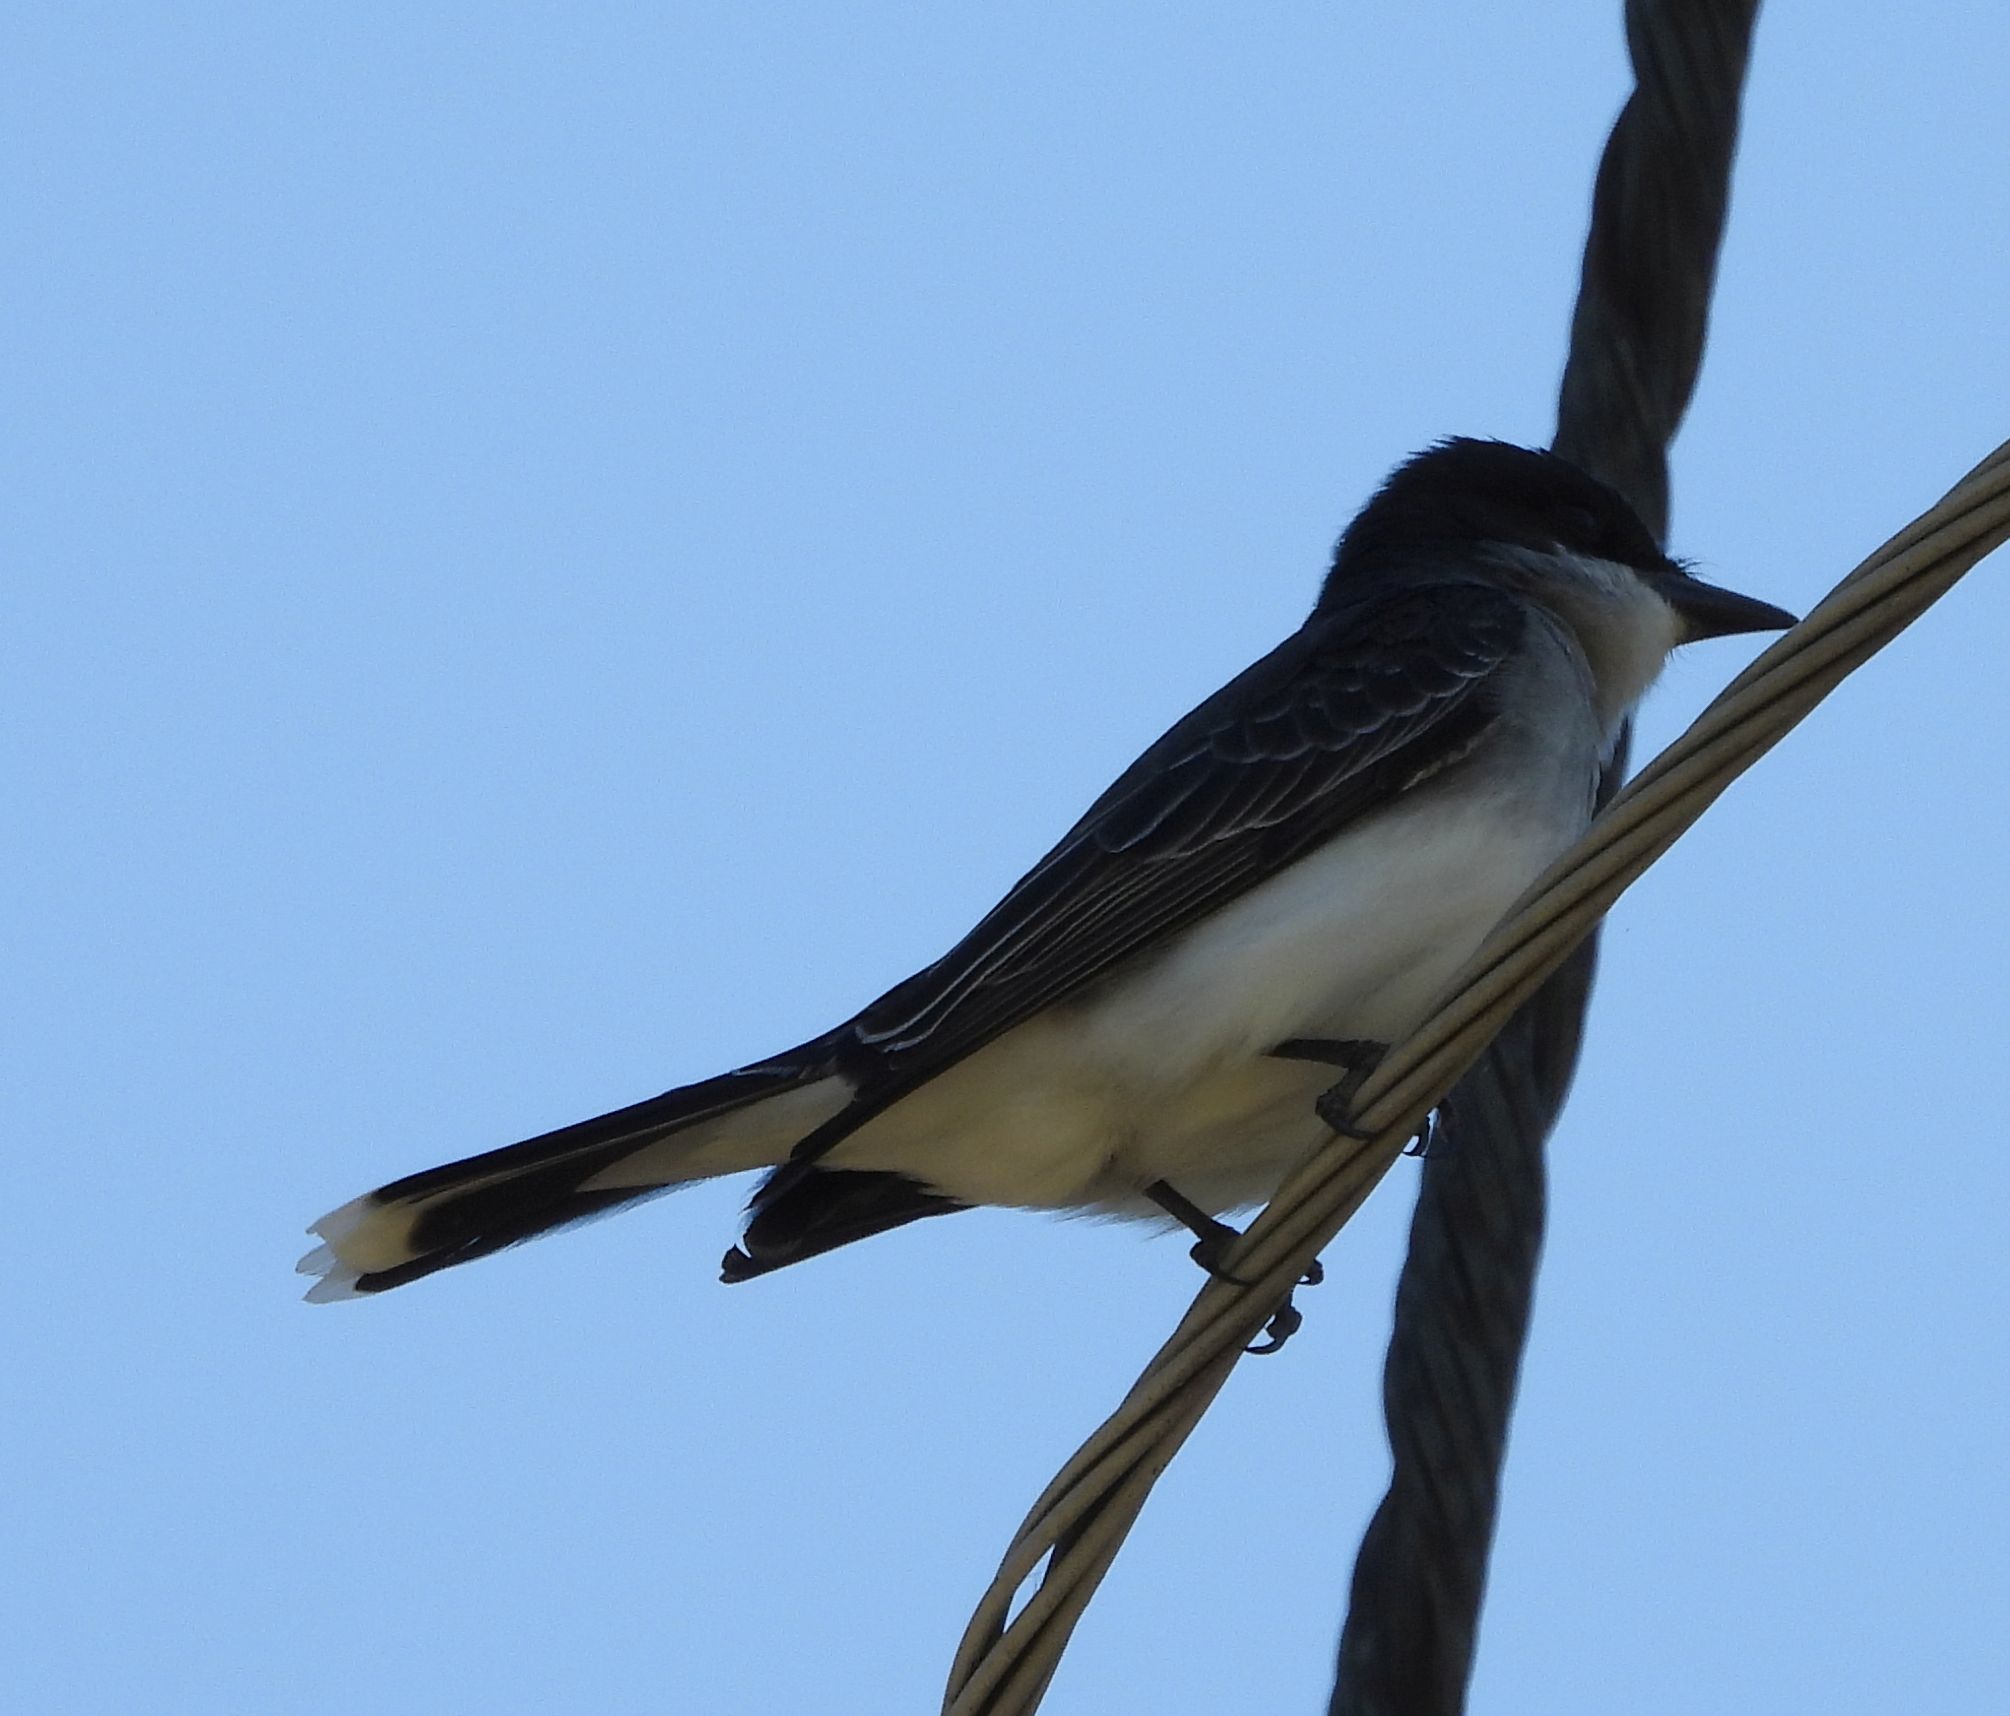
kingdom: Animalia
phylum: Chordata
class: Aves
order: Passeriformes
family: Tyrannidae
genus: Tyrannus
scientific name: Tyrannus tyrannus
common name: Eastern kingbird
